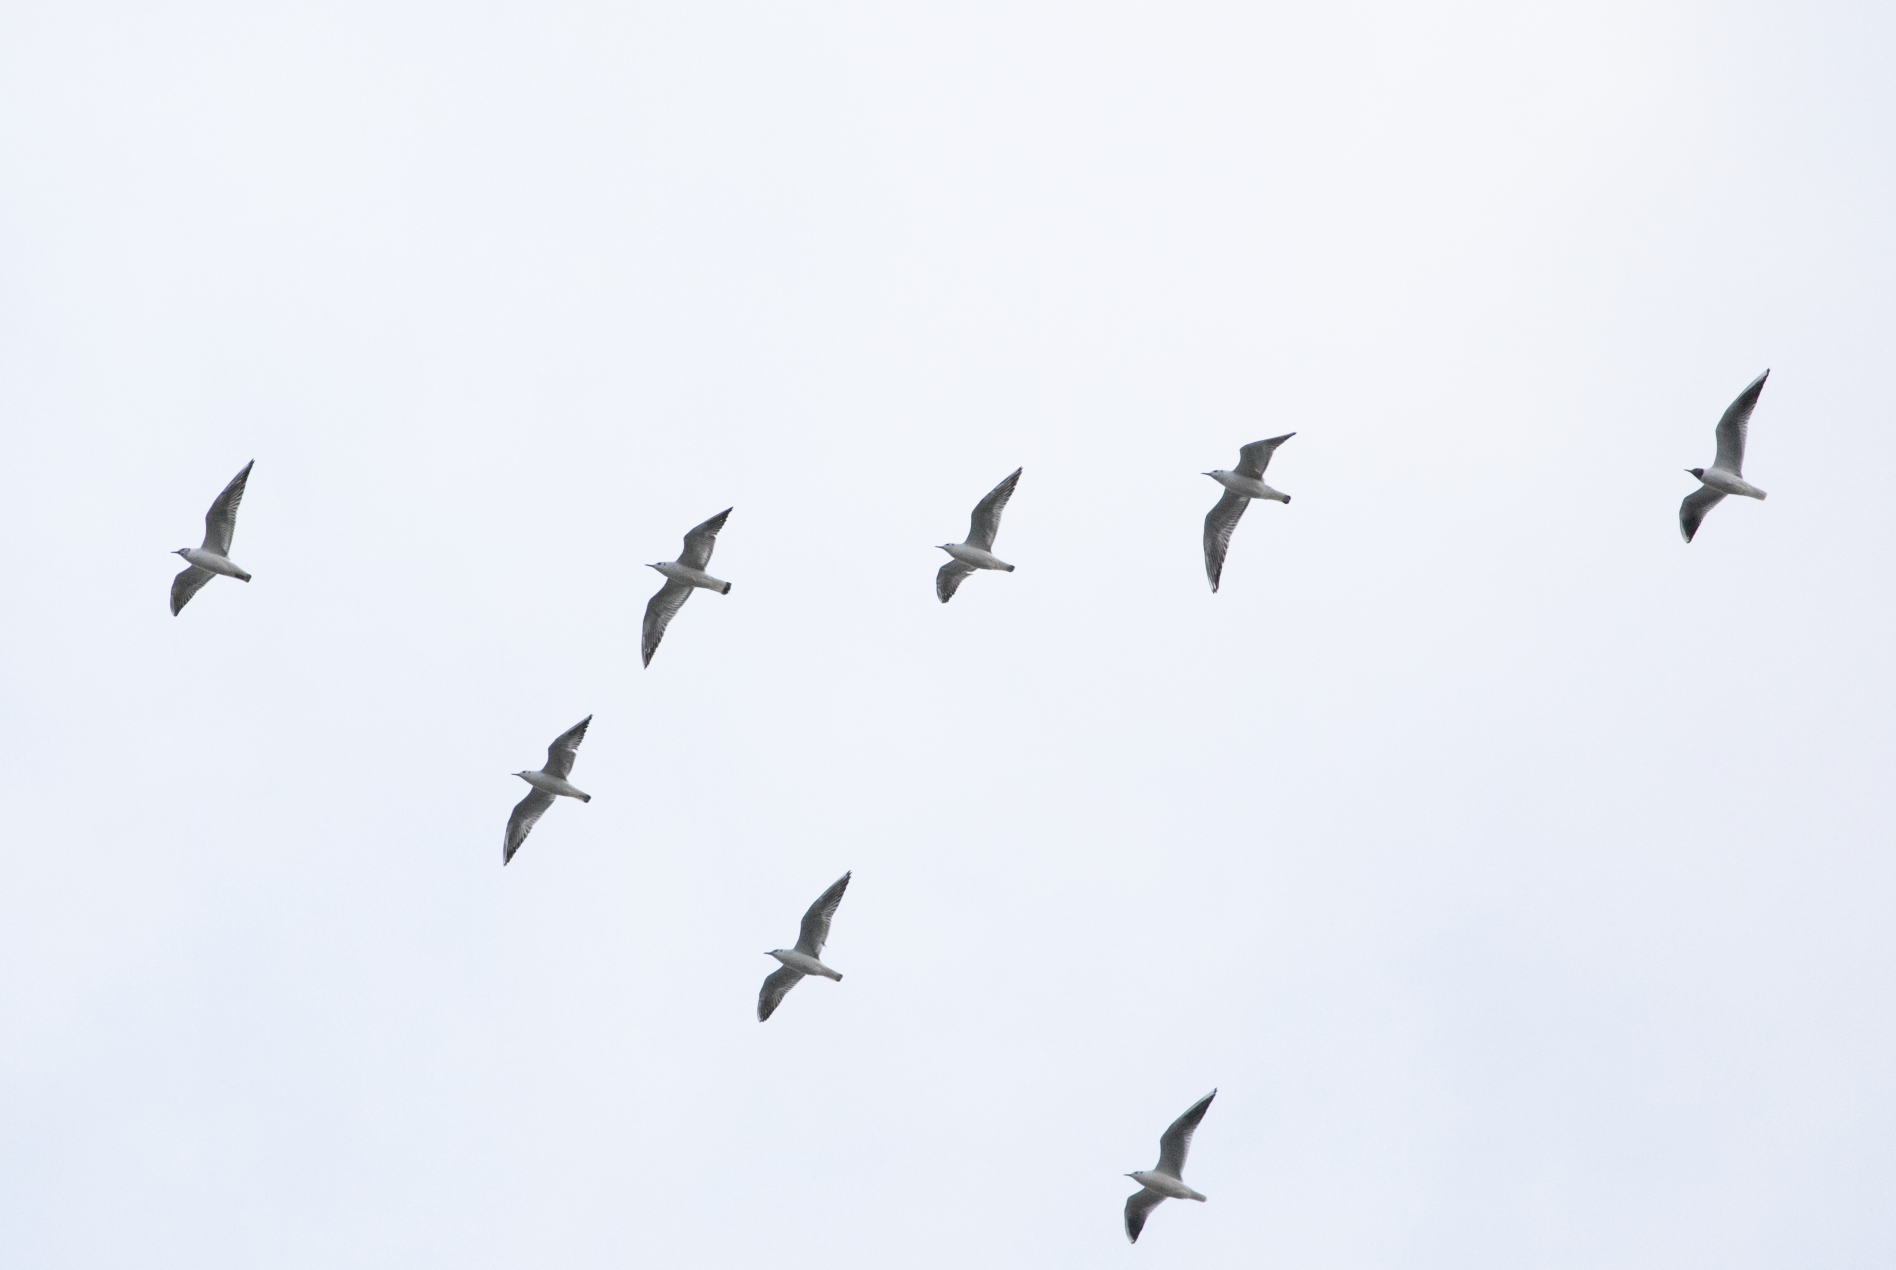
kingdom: Animalia
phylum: Chordata
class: Aves
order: Charadriiformes
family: Laridae
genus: Chroicocephalus
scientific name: Chroicocephalus ridibundus
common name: Black-headed gull
